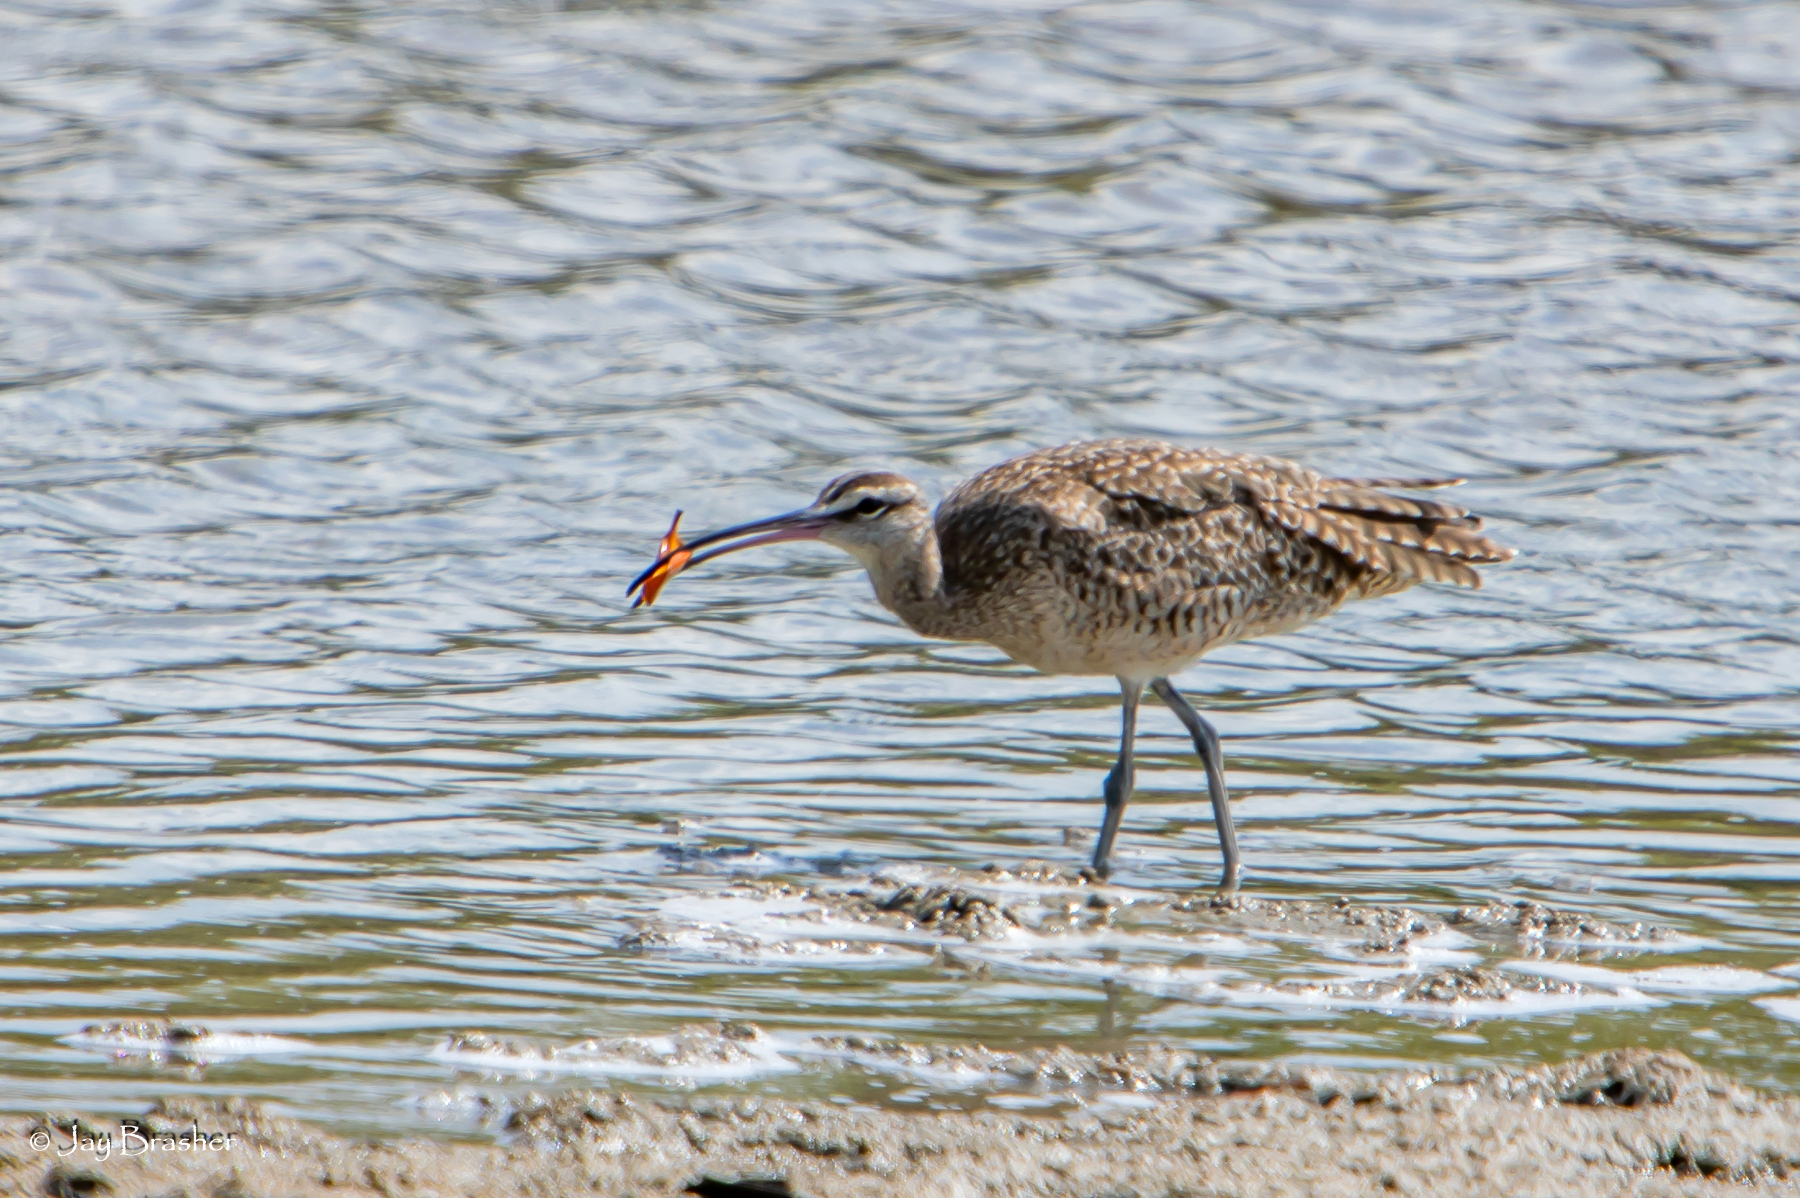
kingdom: Animalia
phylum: Chordata
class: Aves
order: Charadriiformes
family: Scolopacidae
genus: Numenius
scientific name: Numenius phaeopus
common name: Whimbrel
